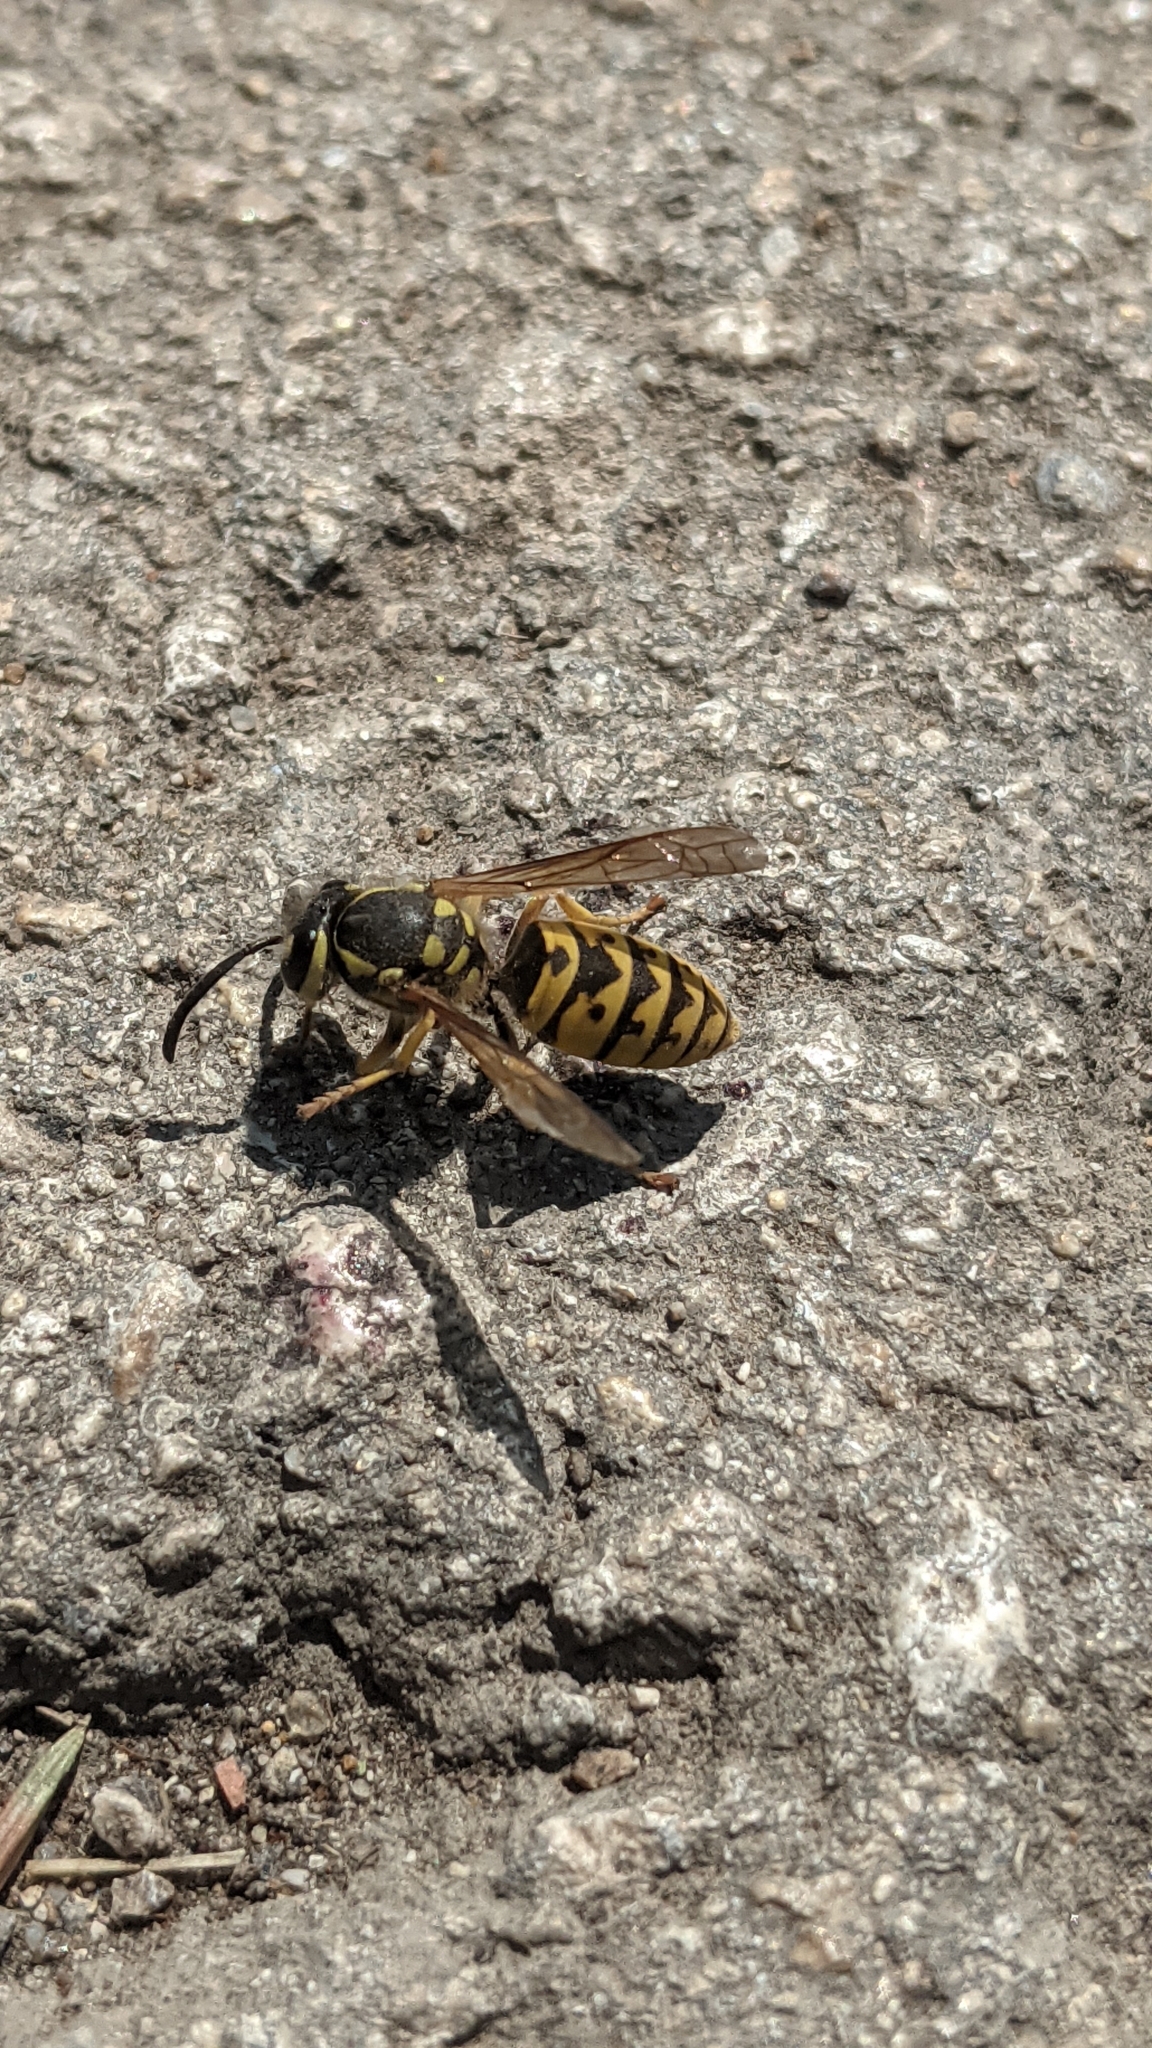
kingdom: Animalia
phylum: Arthropoda
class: Insecta
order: Hymenoptera
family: Vespidae
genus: Vespula
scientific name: Vespula germanica
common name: German wasp
